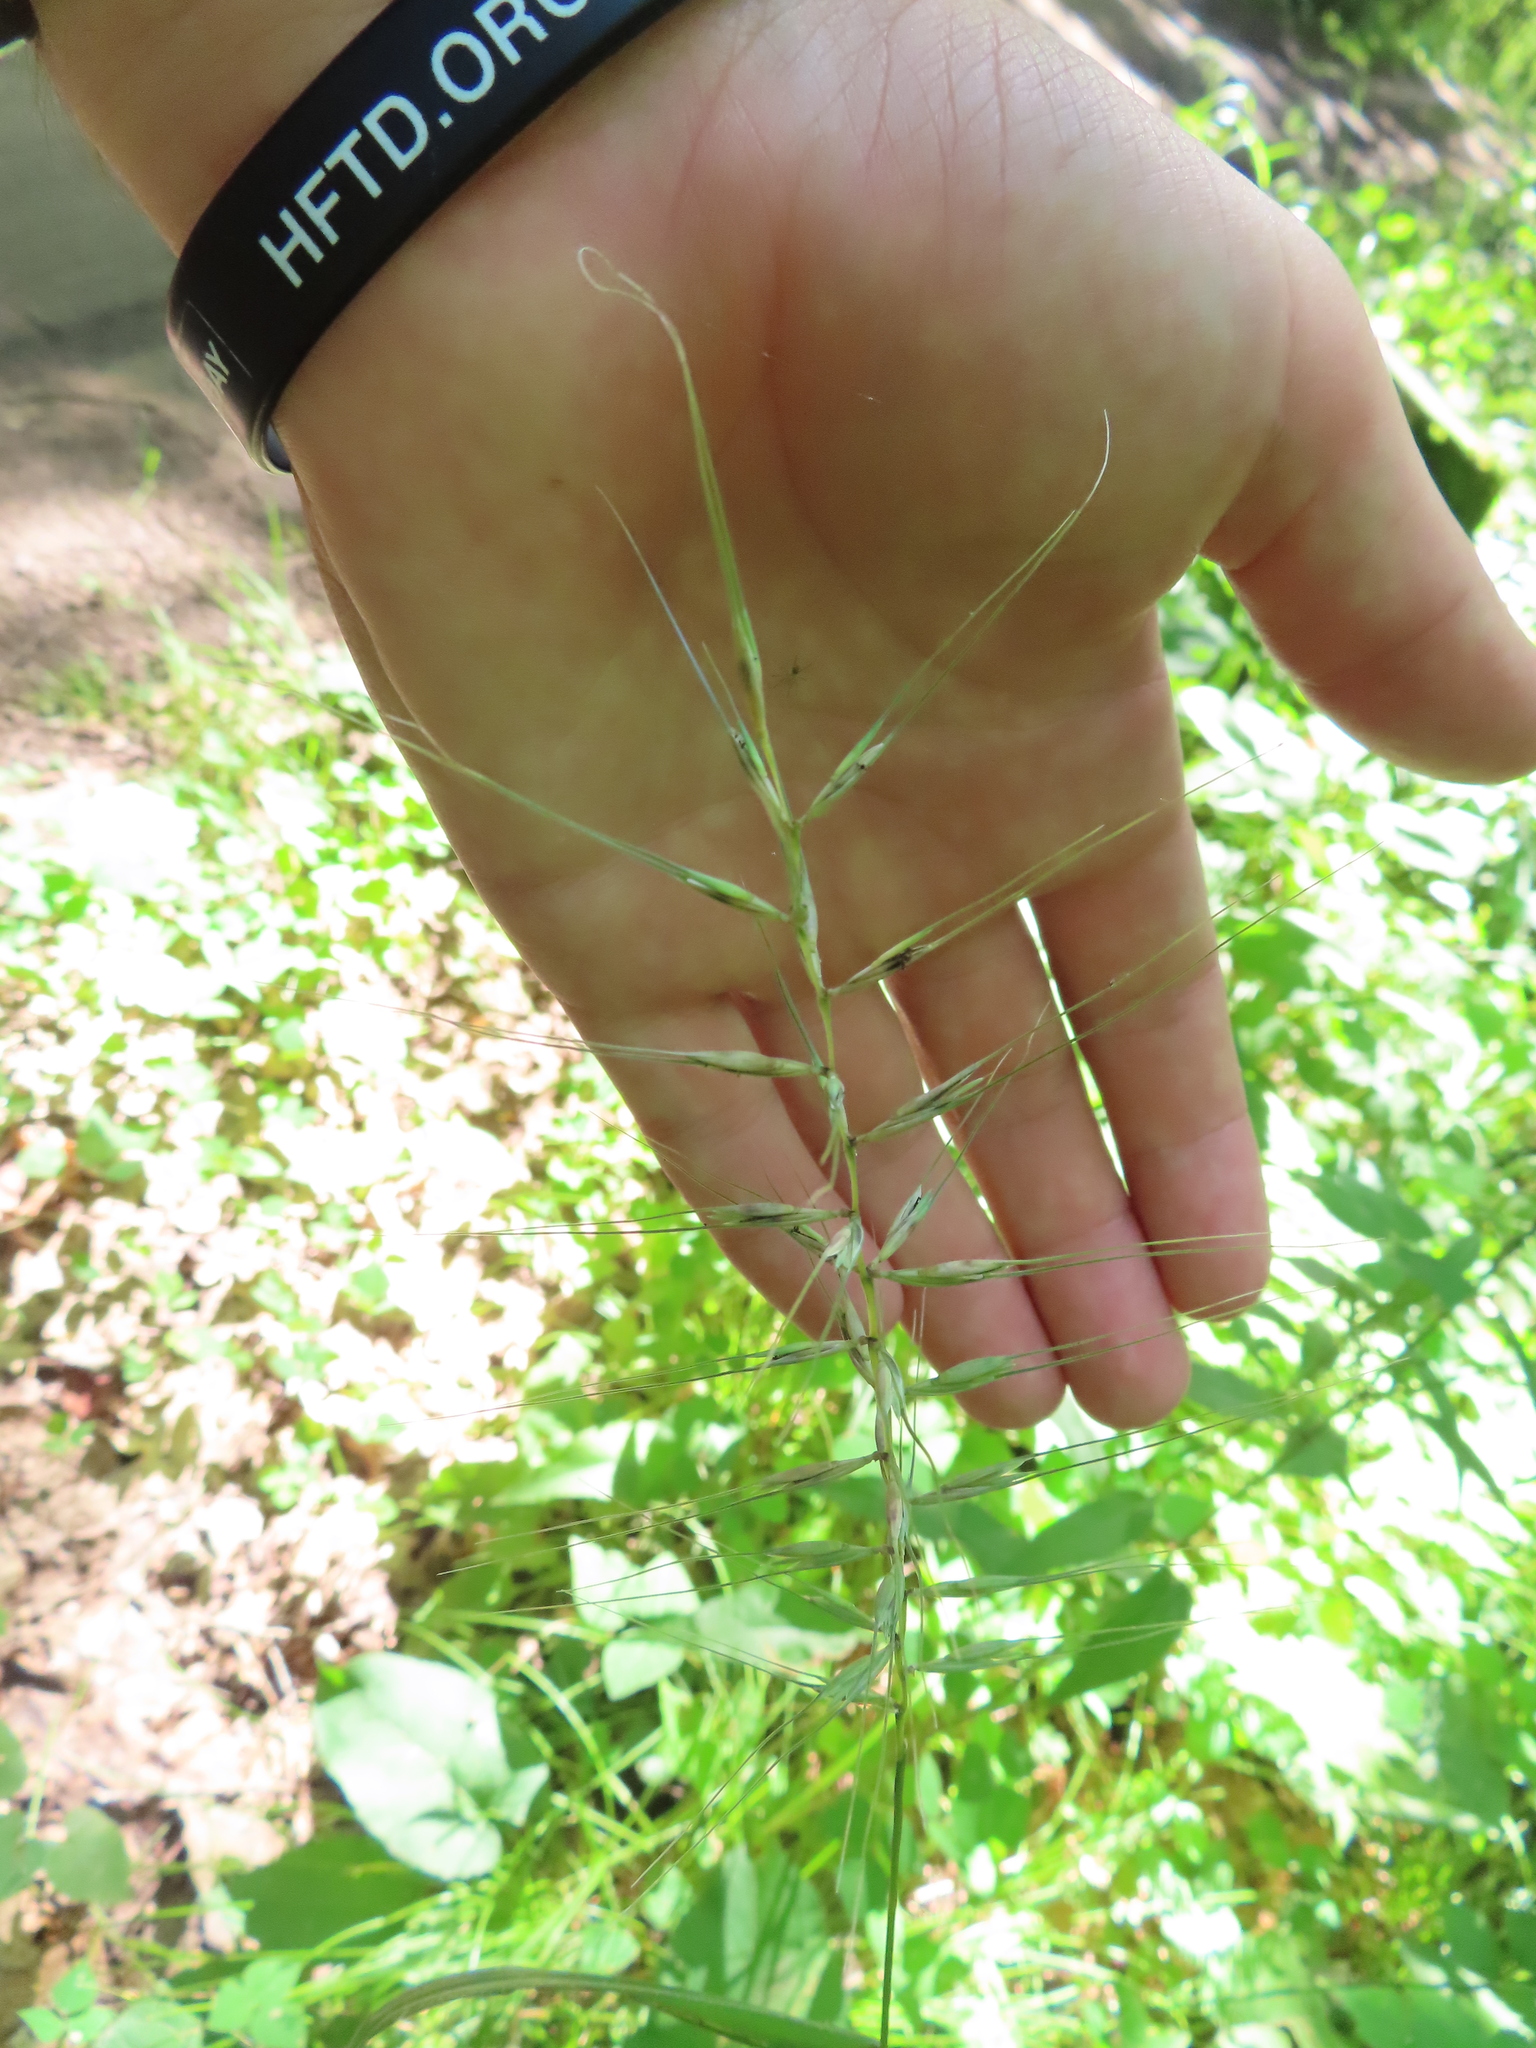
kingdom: Plantae
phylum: Tracheophyta
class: Liliopsida
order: Poales
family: Poaceae
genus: Elymus
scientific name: Elymus hystrix
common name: Bottlebrush grass
